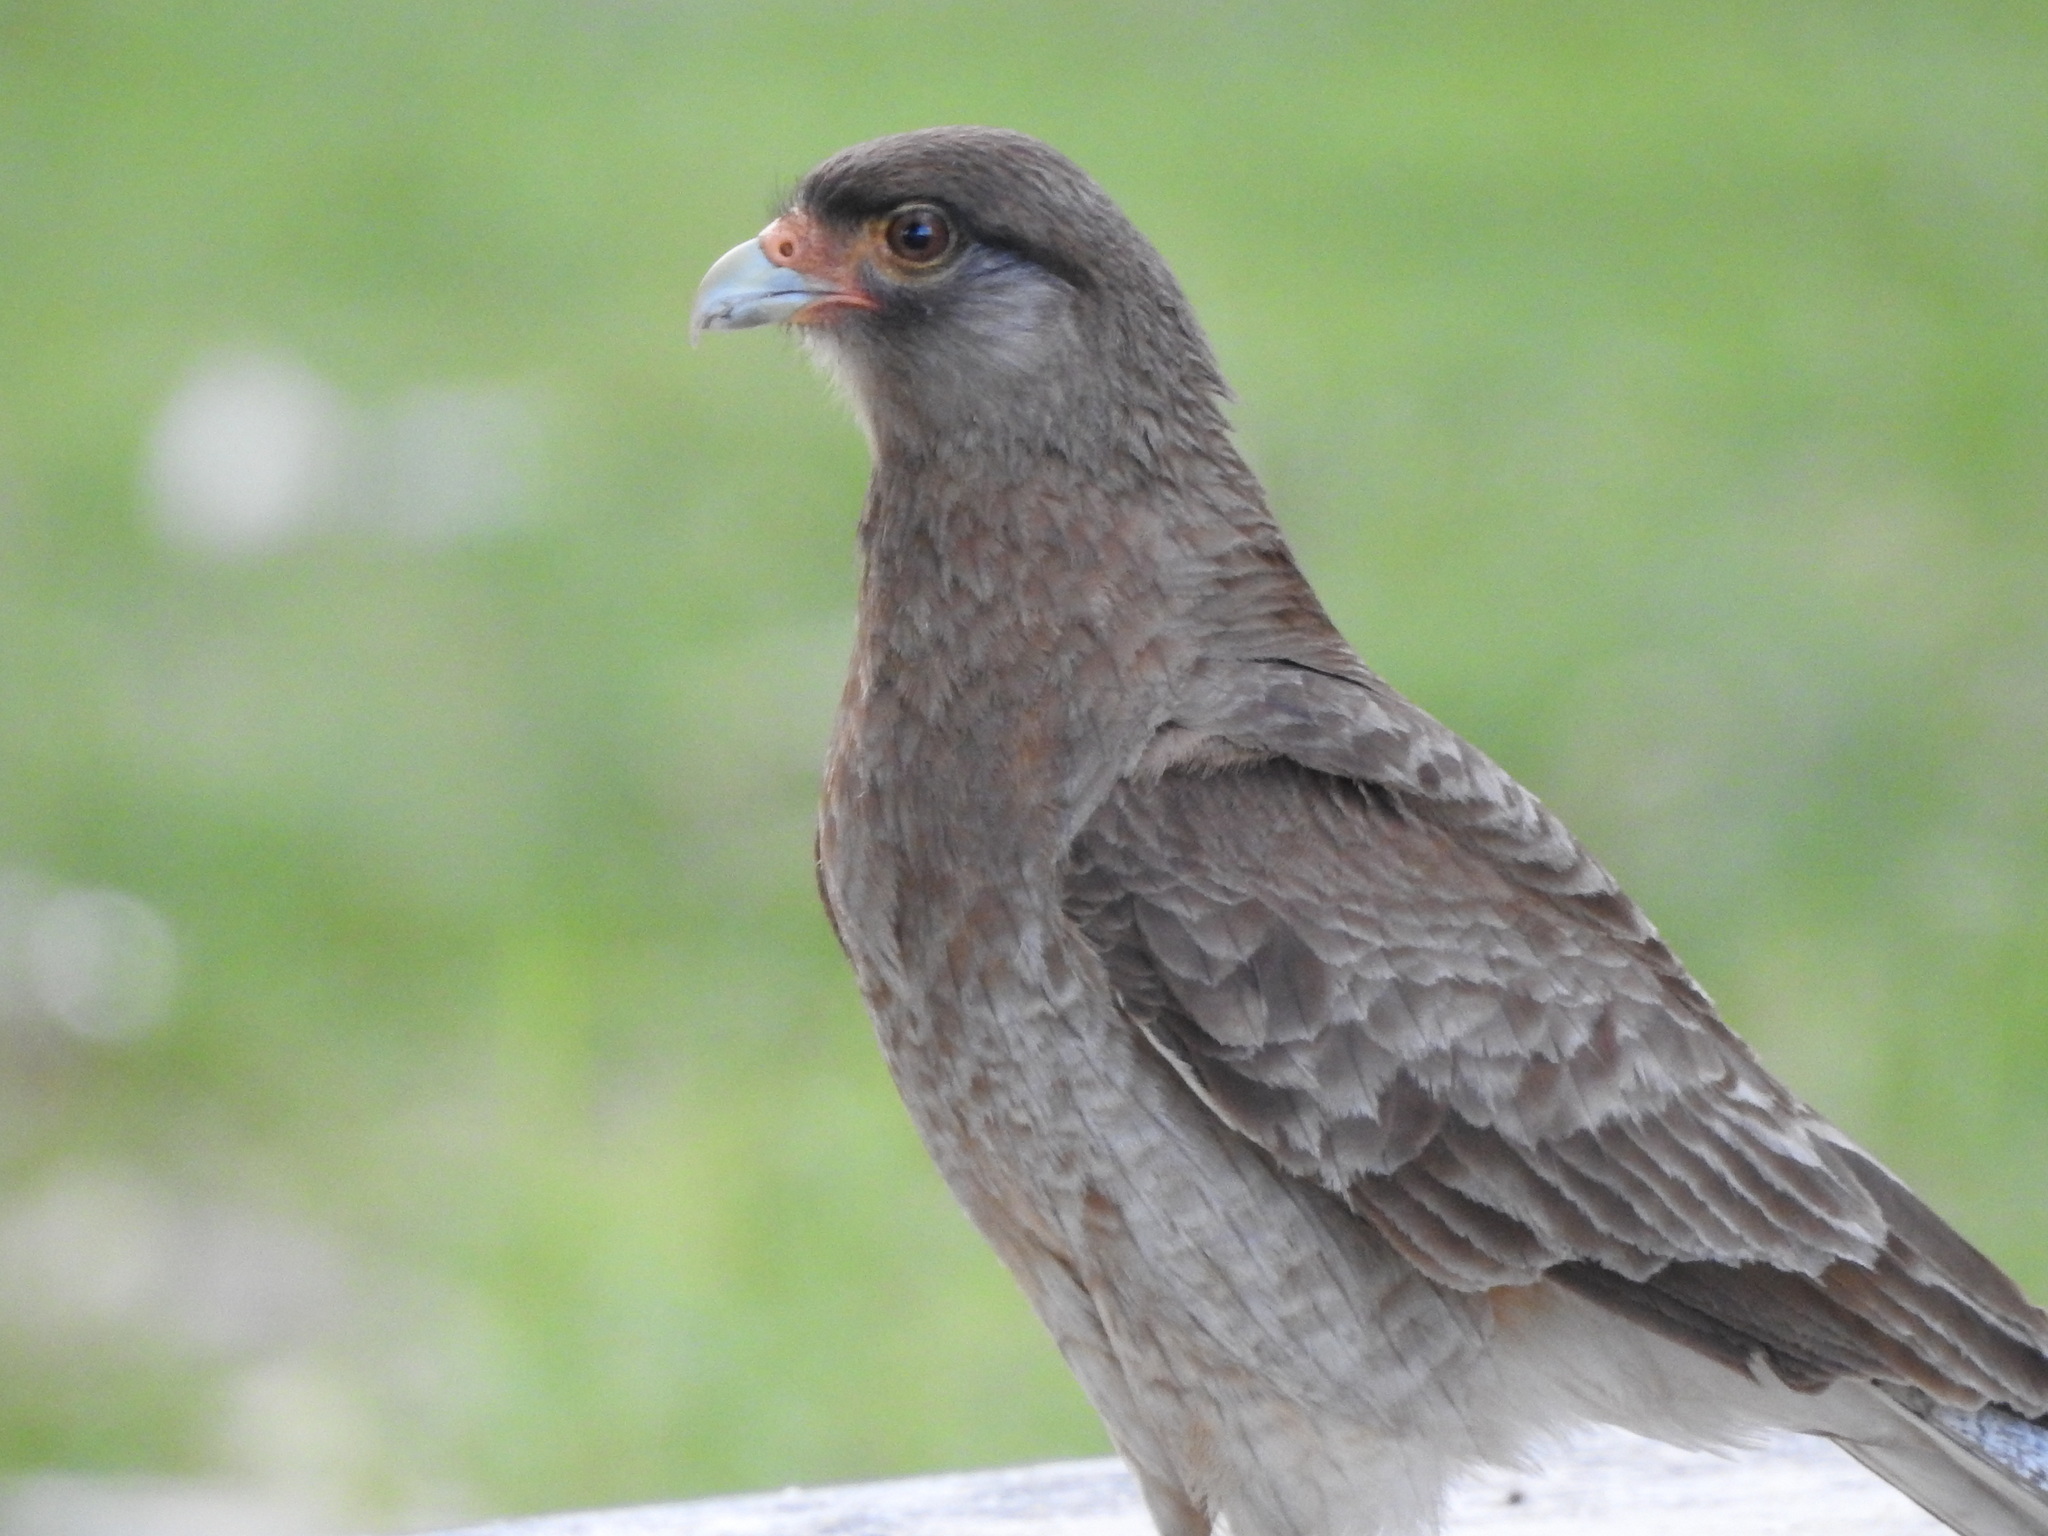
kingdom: Animalia
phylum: Chordata
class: Aves
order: Falconiformes
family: Falconidae
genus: Daptrius
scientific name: Daptrius
